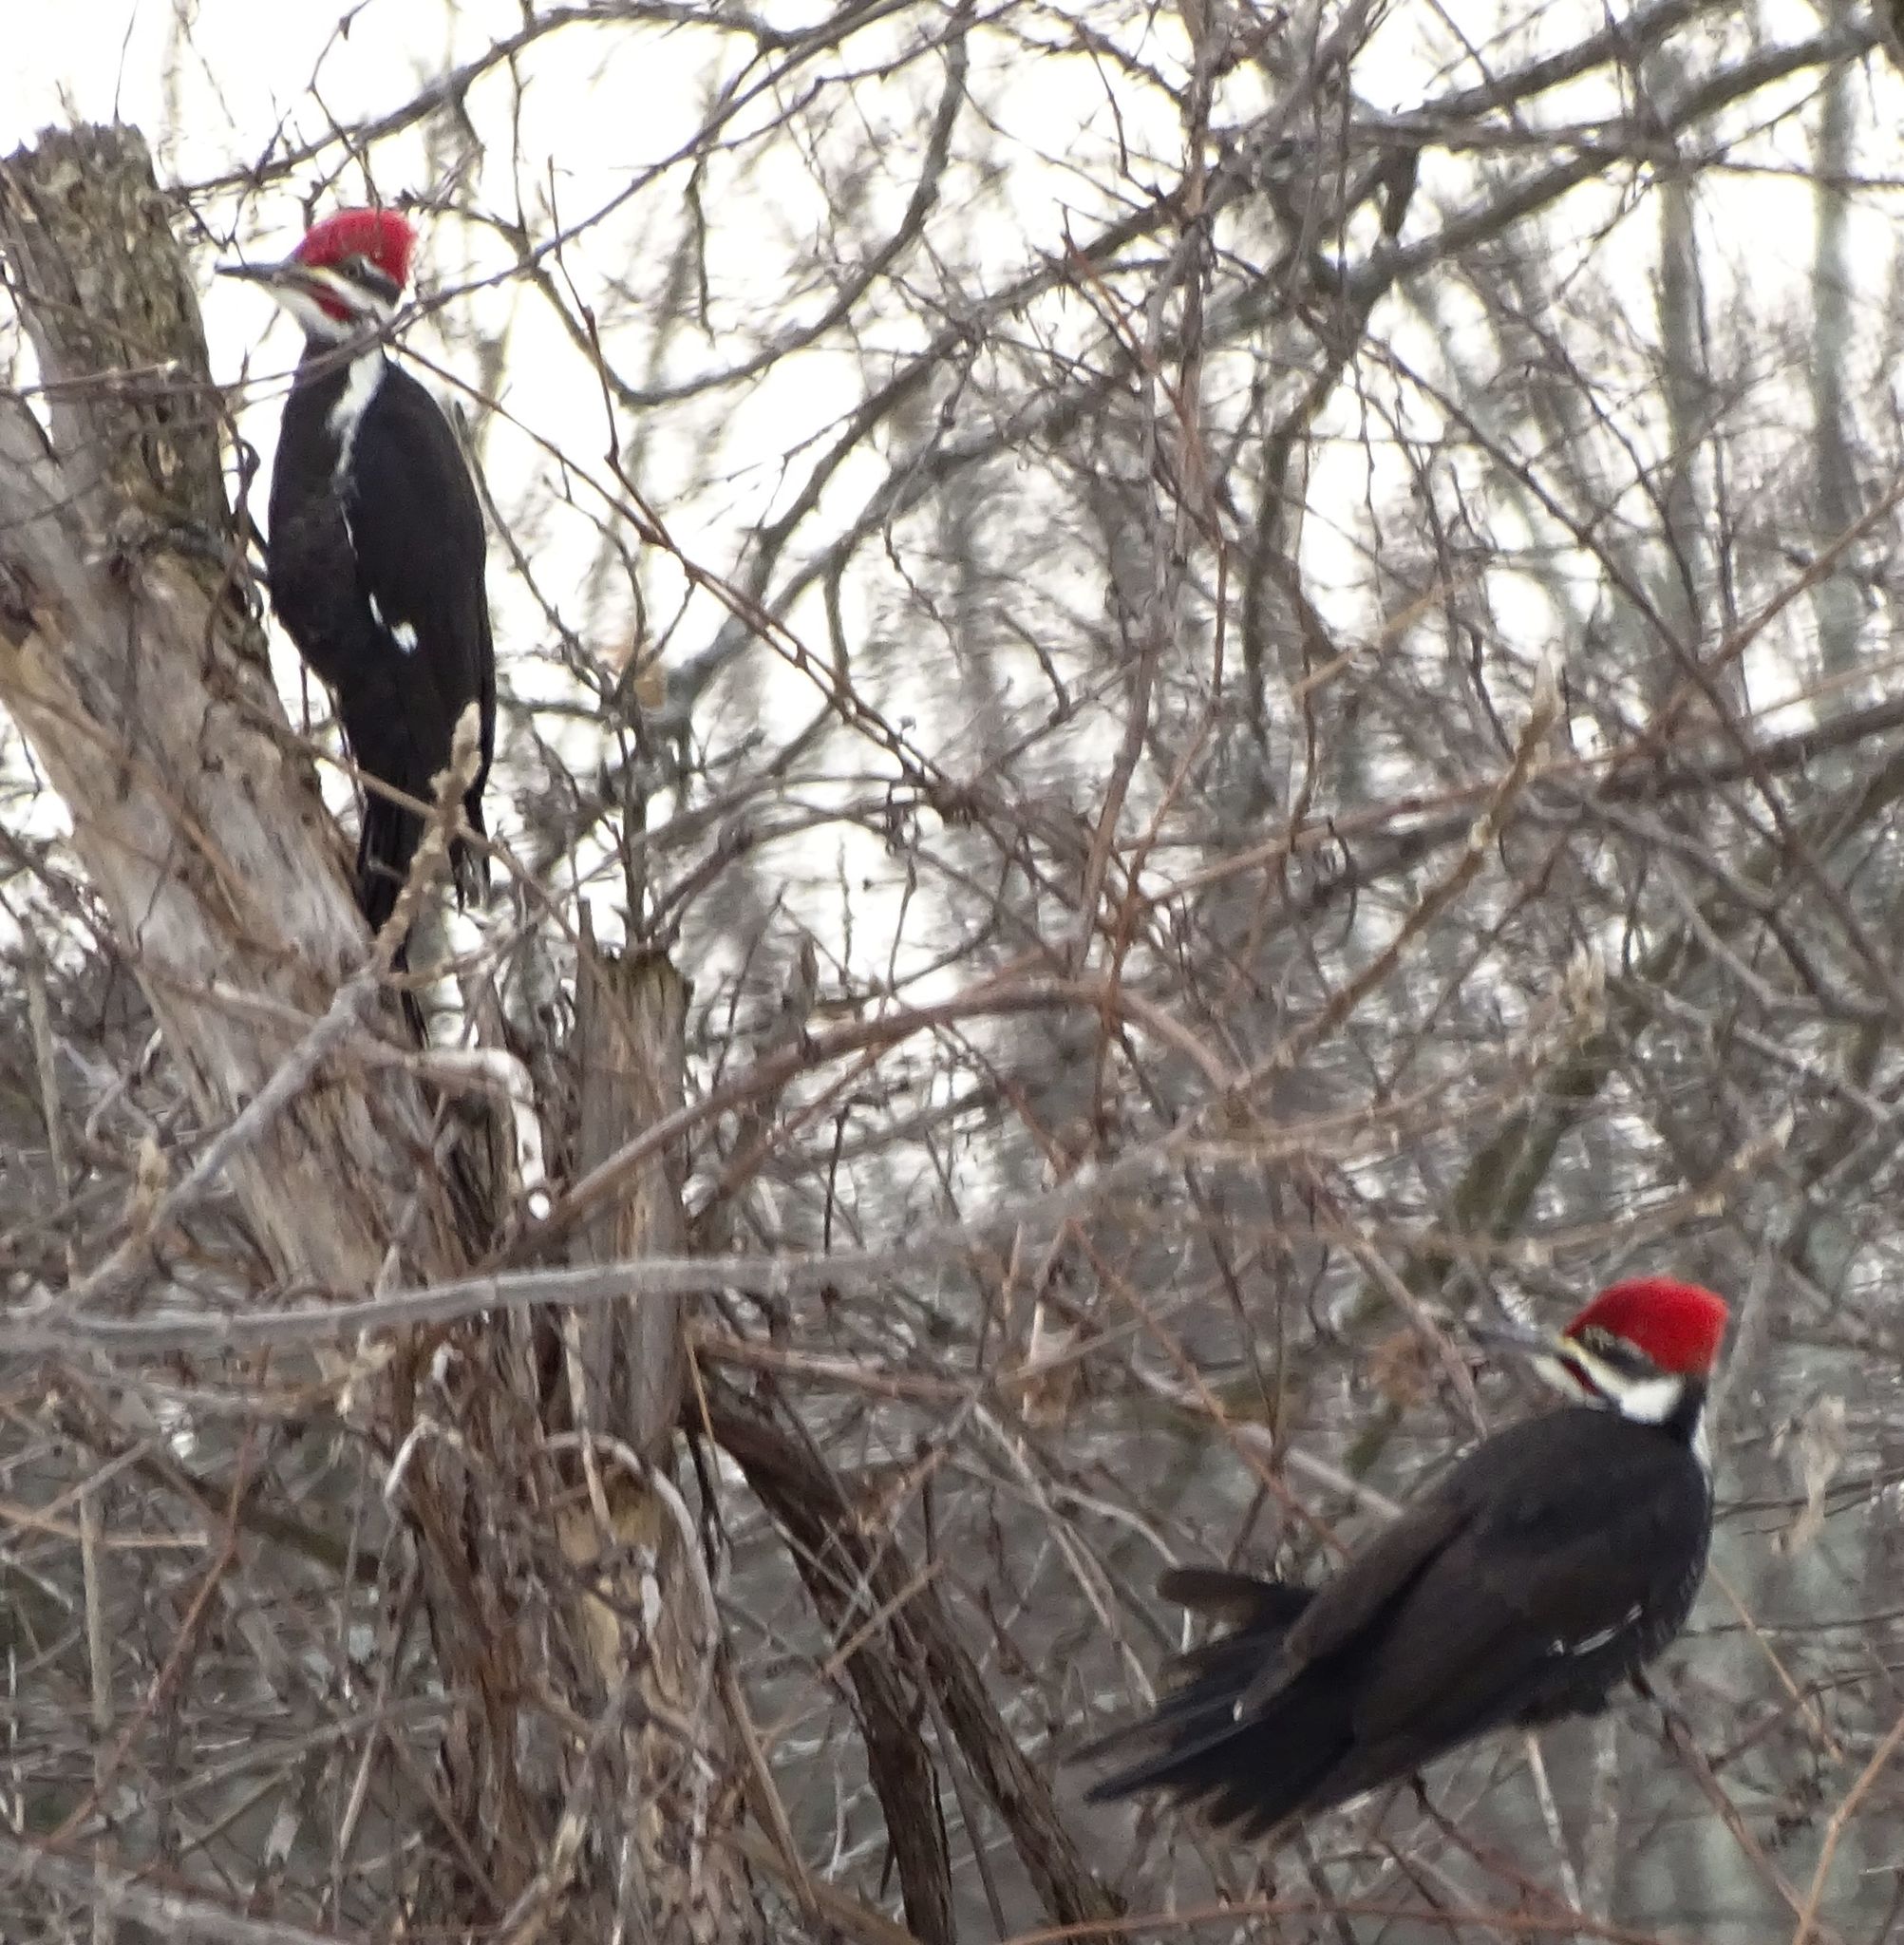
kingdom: Animalia
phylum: Chordata
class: Aves
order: Piciformes
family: Picidae
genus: Dryocopus
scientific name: Dryocopus pileatus
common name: Pileated woodpecker
